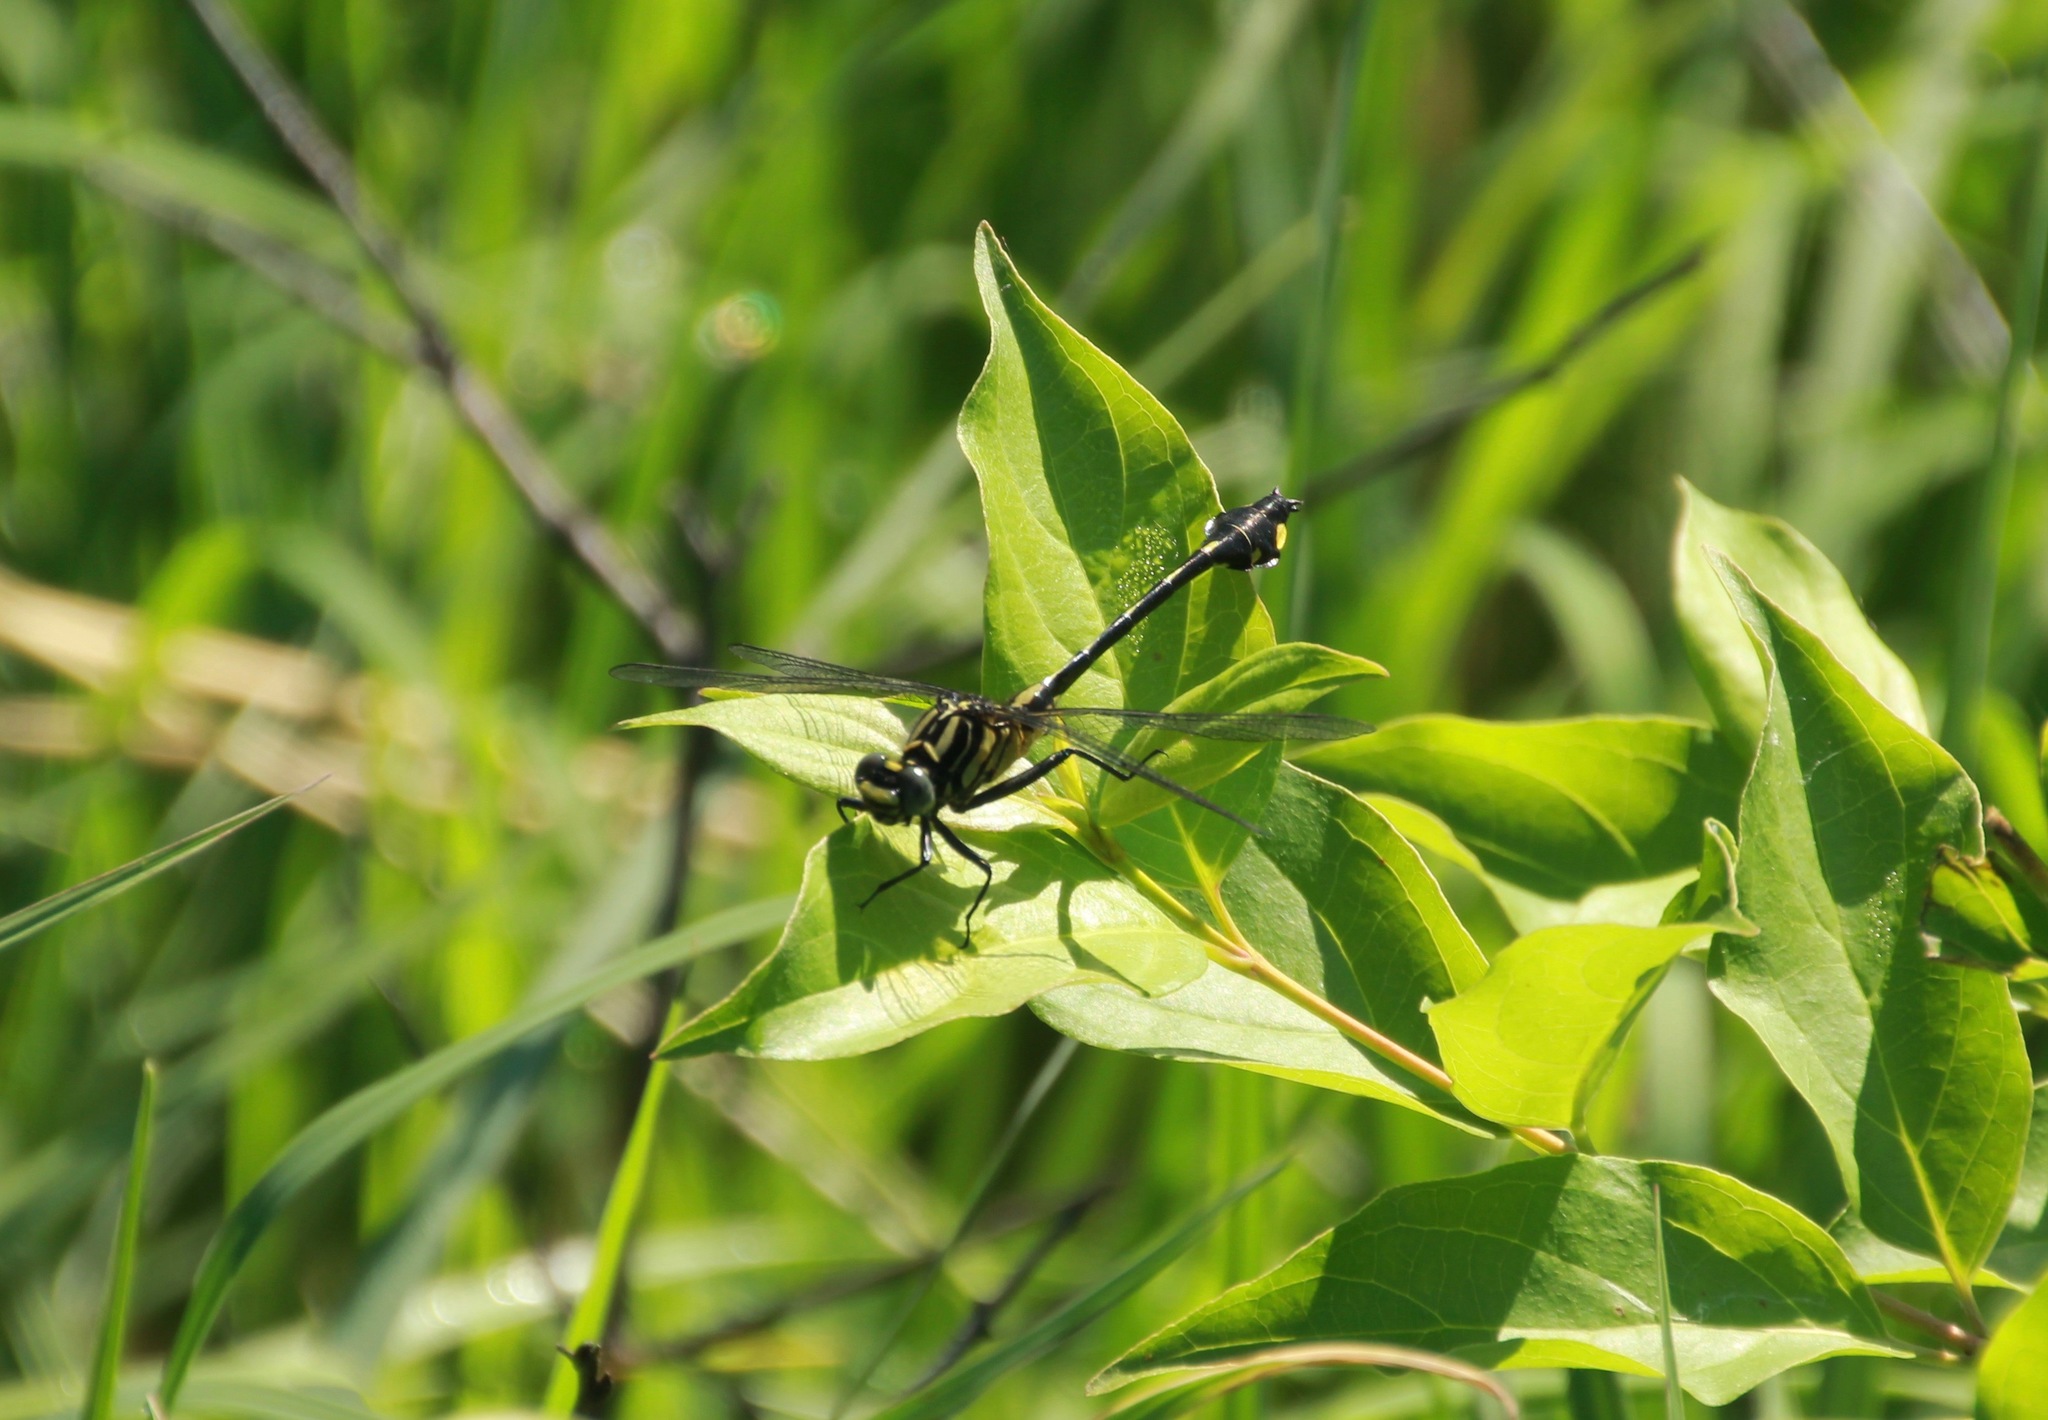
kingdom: Animalia
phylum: Arthropoda
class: Insecta
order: Odonata
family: Gomphidae
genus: Gomphurus
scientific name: Gomphurus vastus
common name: Cobra clubtail
